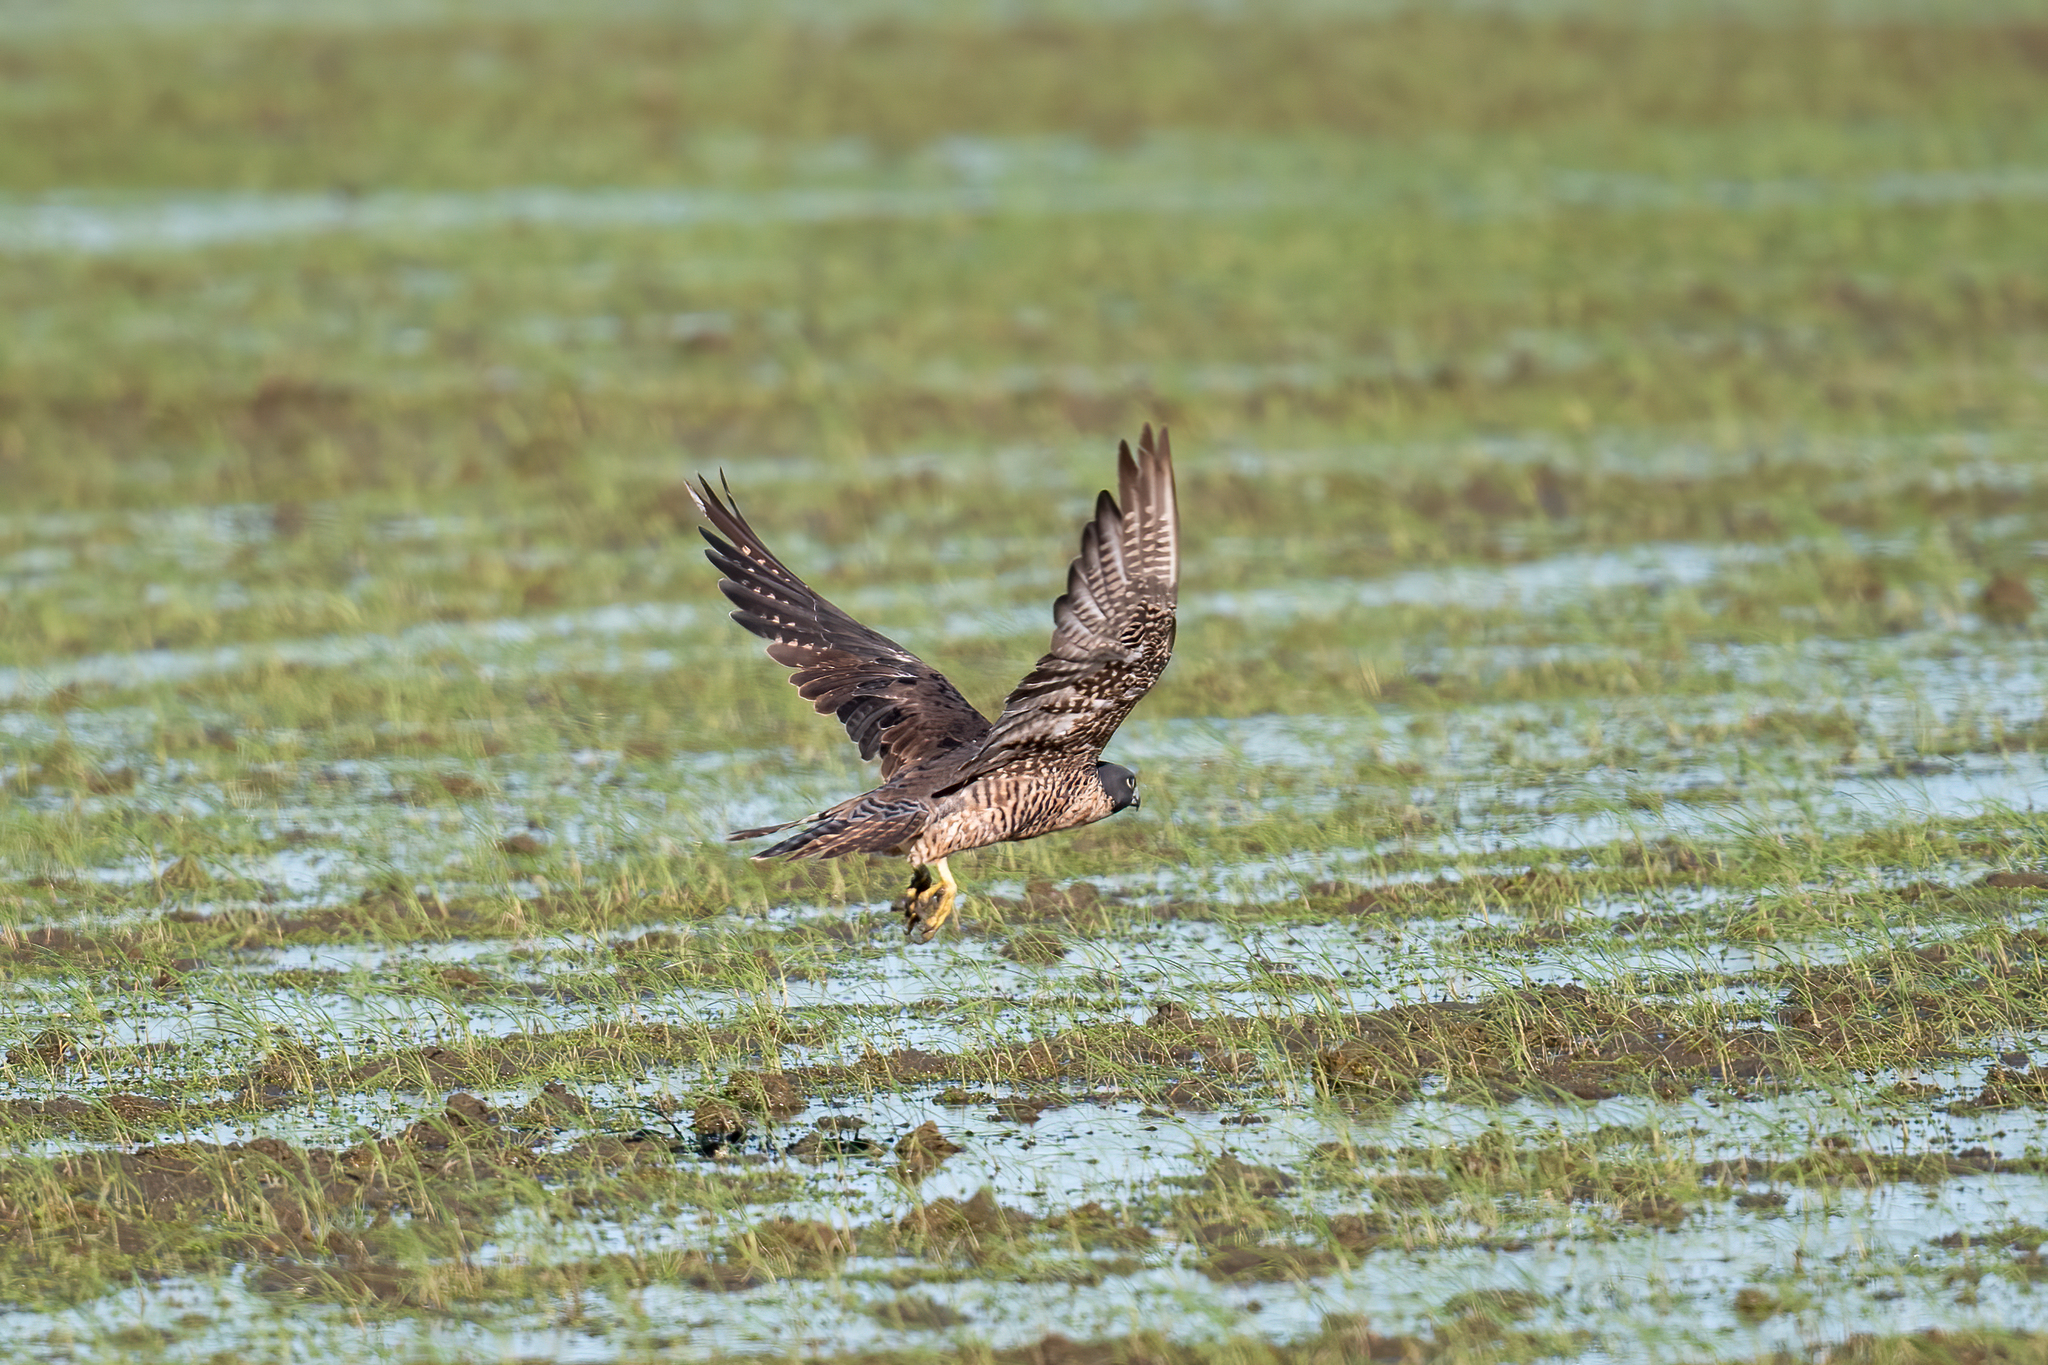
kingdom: Animalia
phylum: Chordata
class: Aves
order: Falconiformes
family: Falconidae
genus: Falco
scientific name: Falco peregrinus
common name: Peregrine falcon
